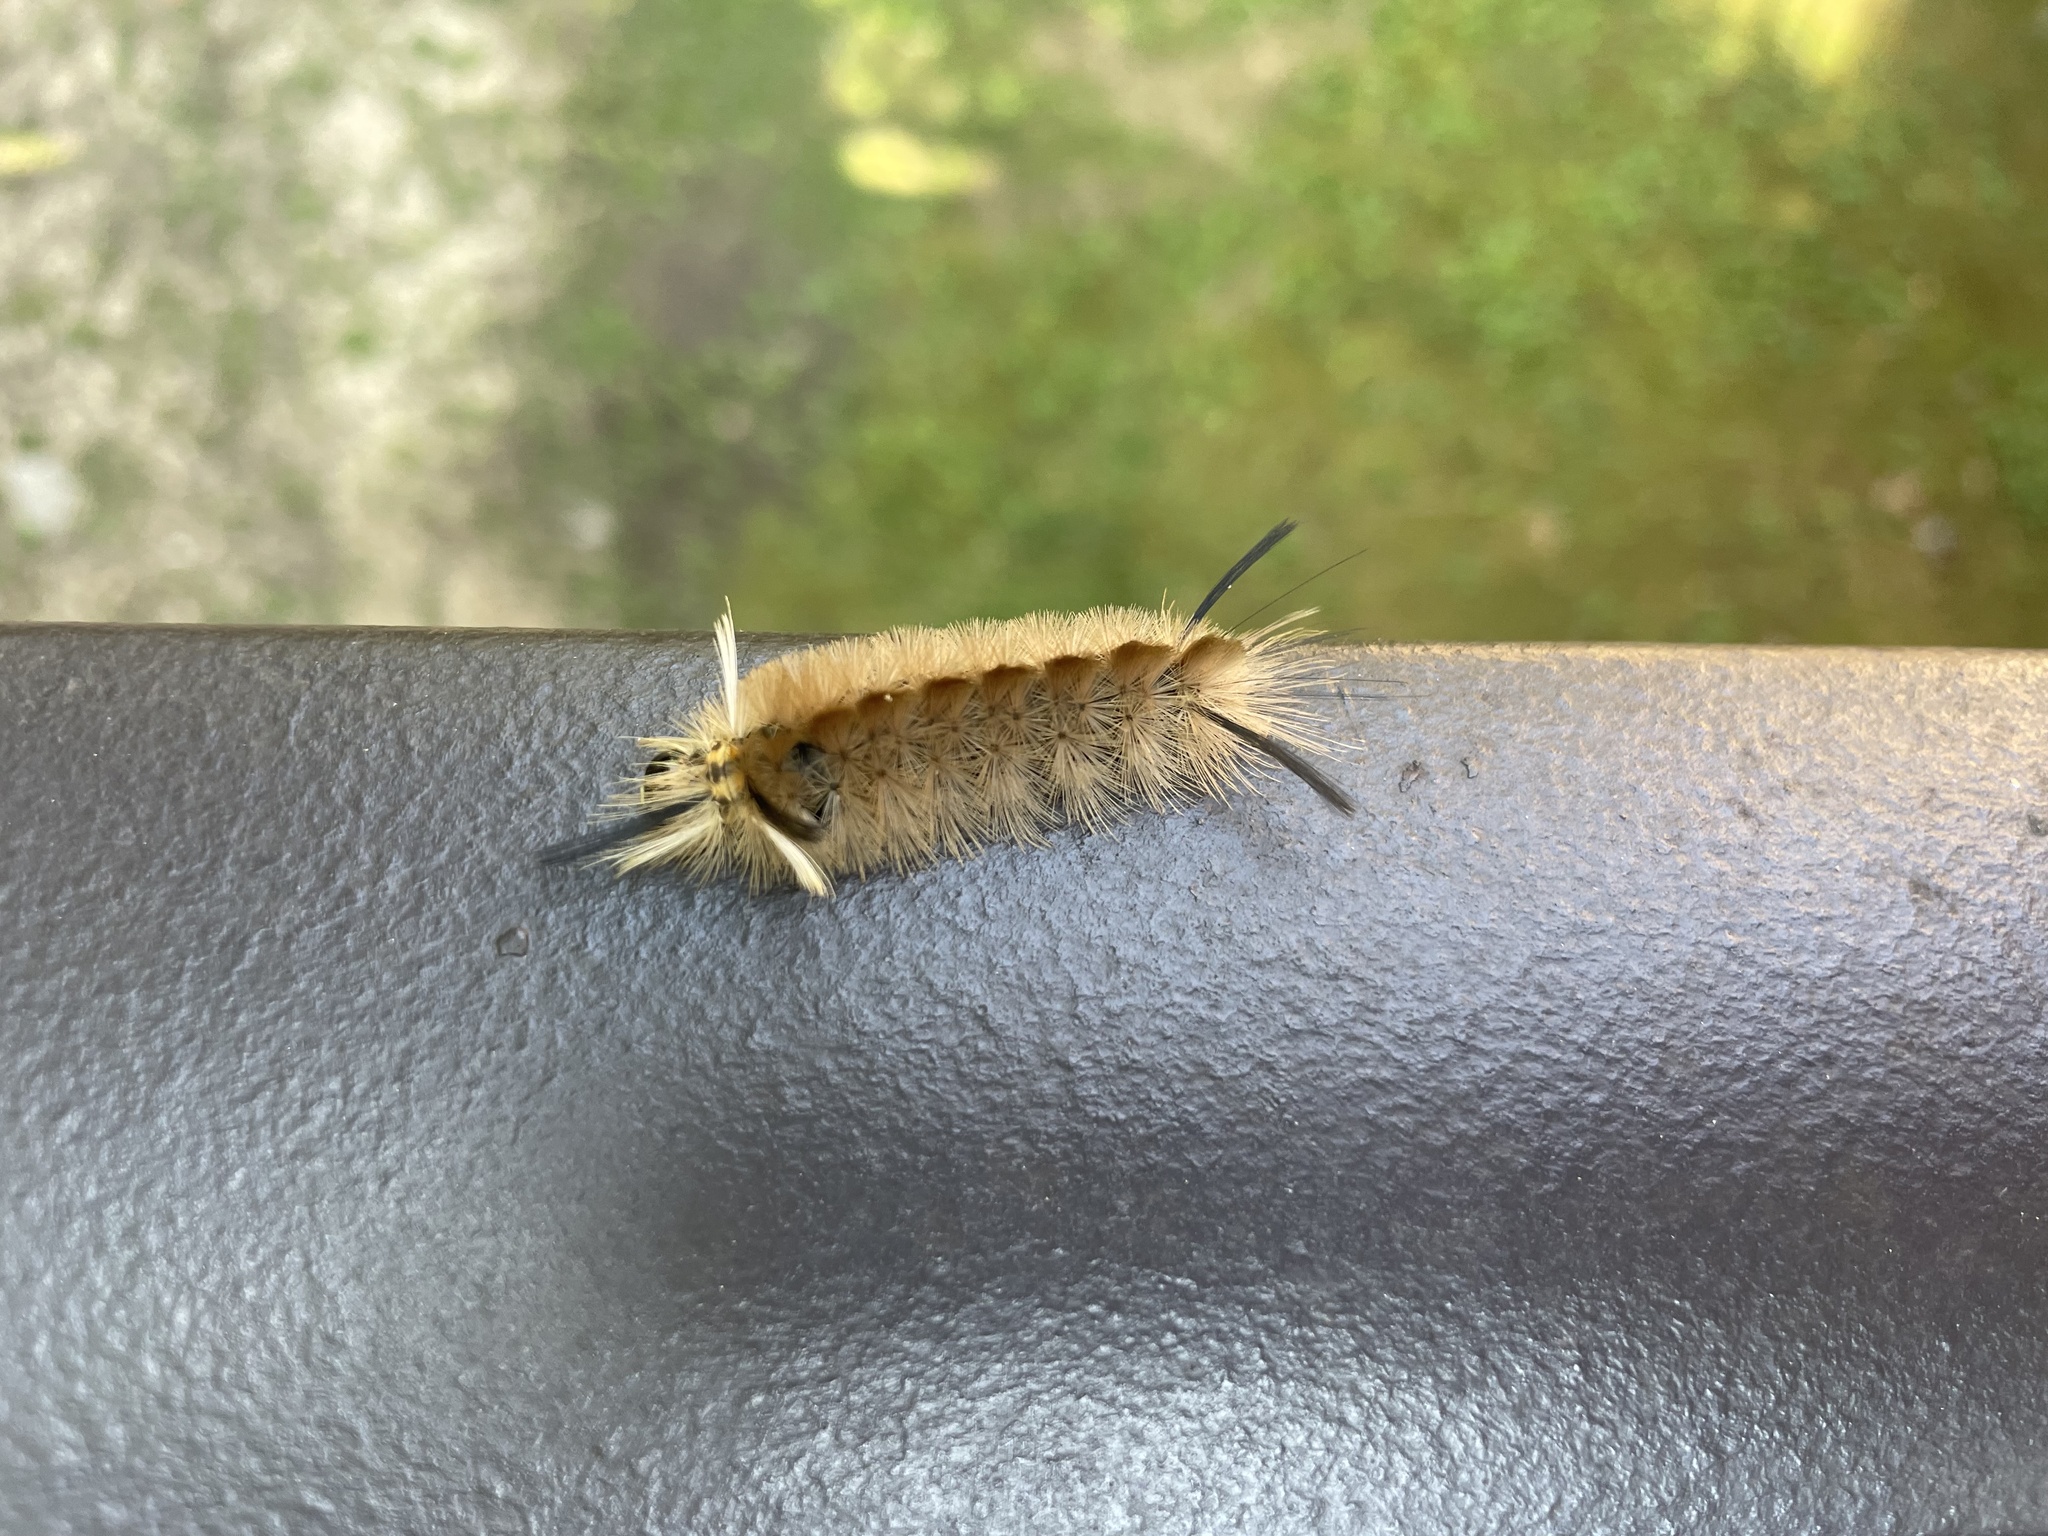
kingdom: Animalia
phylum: Arthropoda
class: Insecta
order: Lepidoptera
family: Erebidae
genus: Halysidota
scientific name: Halysidota tessellaris
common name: Banded tussock moth
